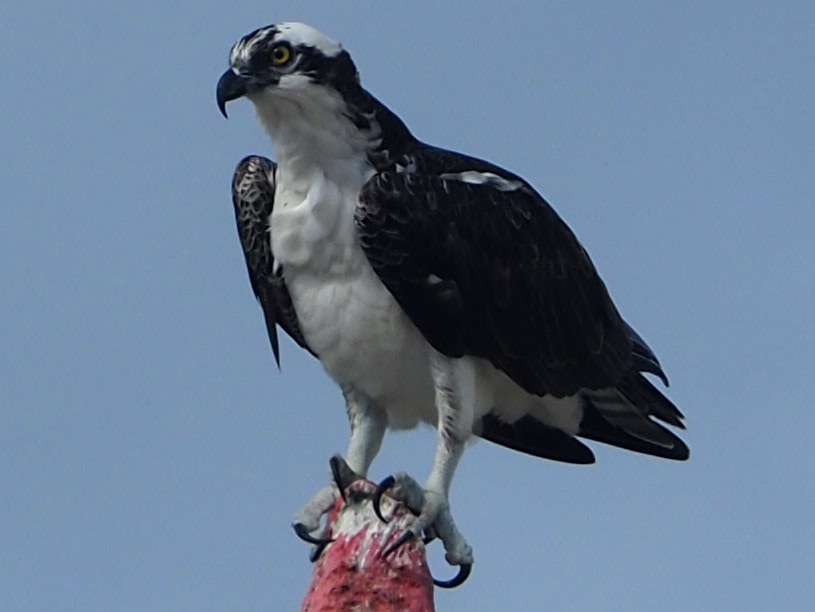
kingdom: Animalia
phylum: Chordata
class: Aves
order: Accipitriformes
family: Pandionidae
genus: Pandion
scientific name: Pandion haliaetus
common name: Osprey
